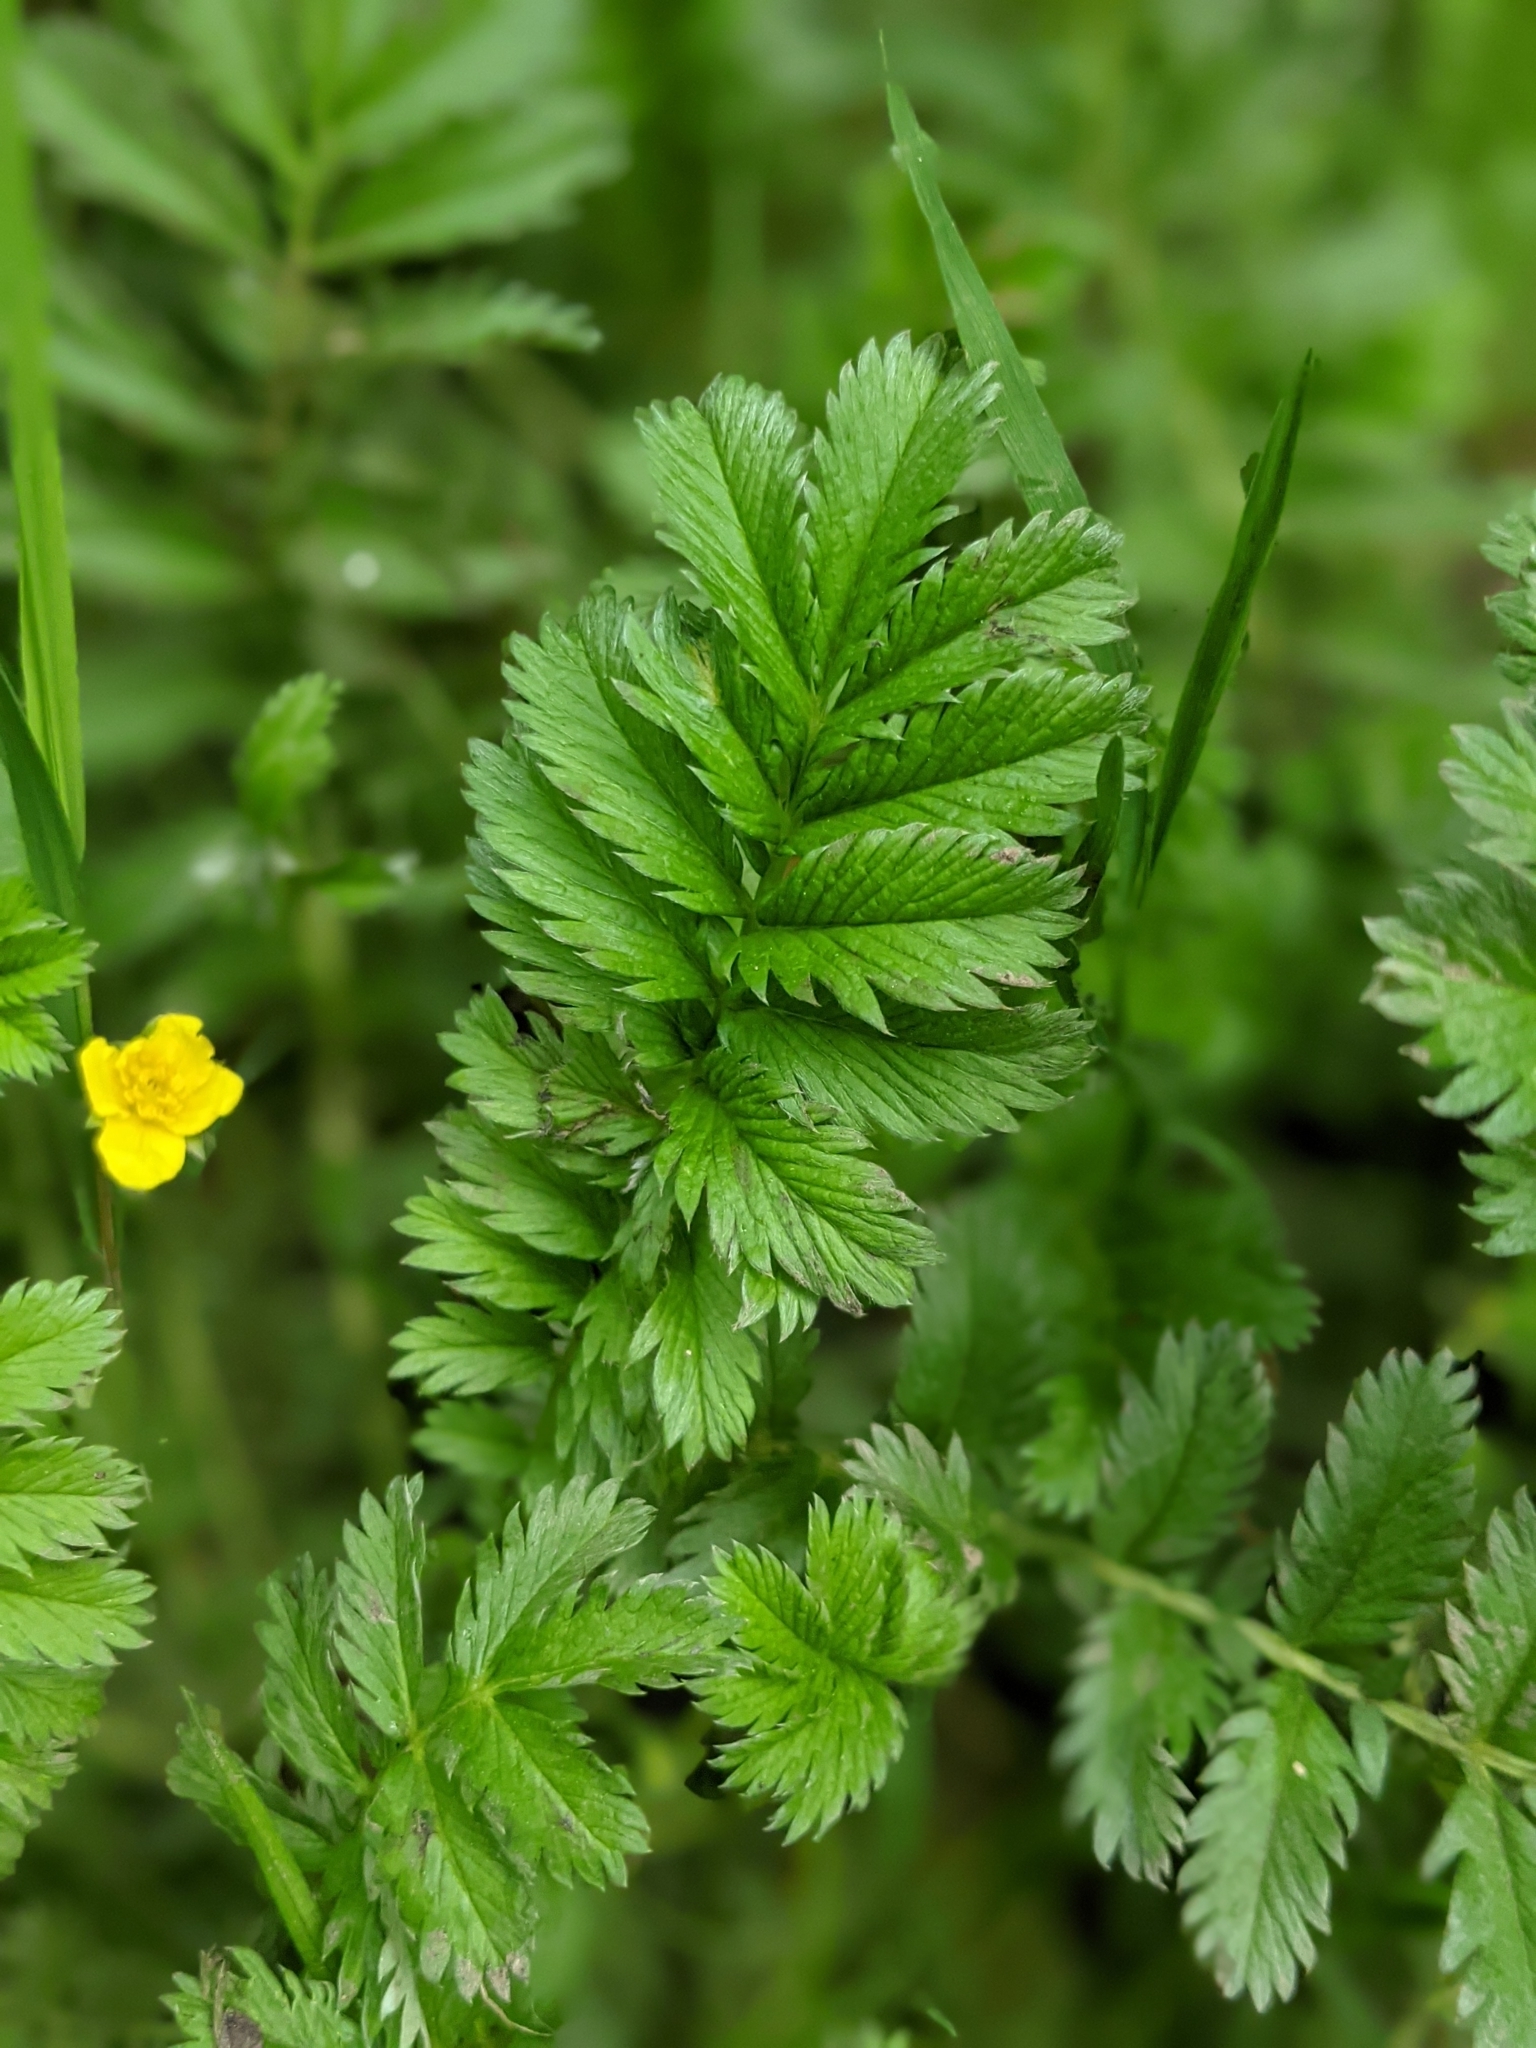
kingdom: Plantae
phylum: Tracheophyta
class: Magnoliopsida
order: Rosales
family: Rosaceae
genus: Argentina
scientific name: Argentina anserina
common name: Common silverweed
